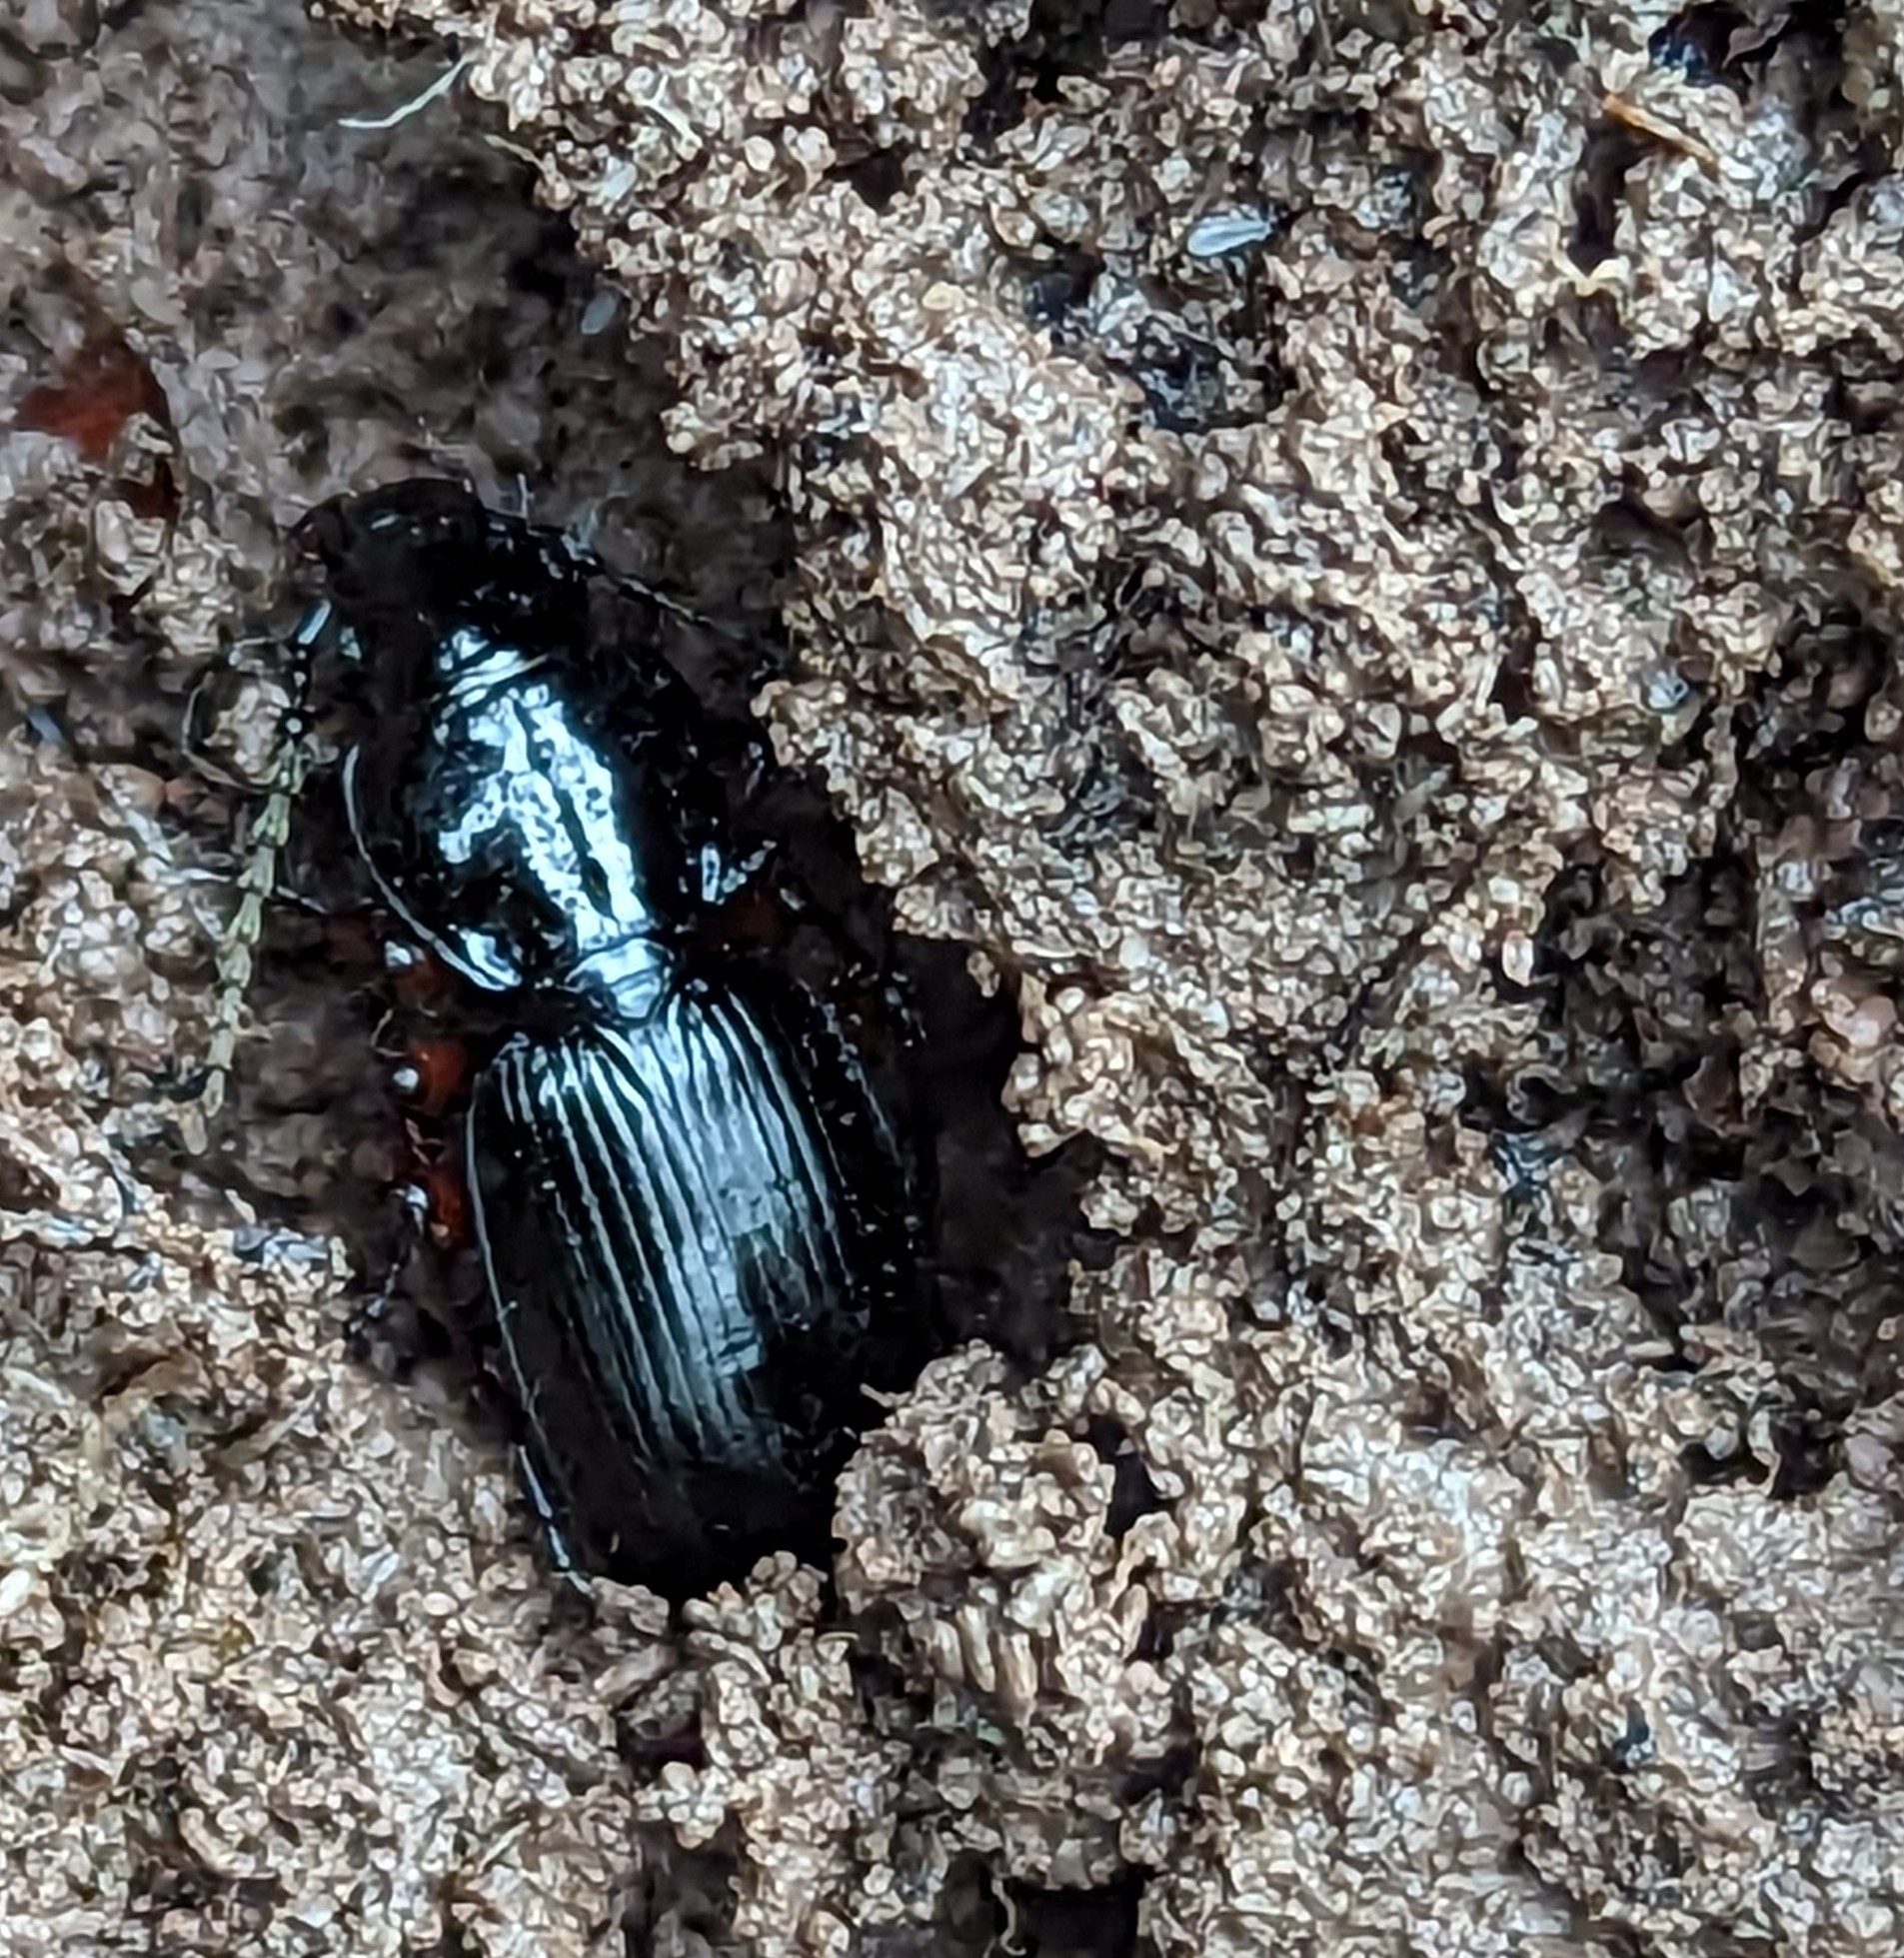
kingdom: Animalia
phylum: Arthropoda
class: Insecta
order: Coleoptera
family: Carabidae
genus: Pterostichus
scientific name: Pterostichus madidus
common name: Black clock
